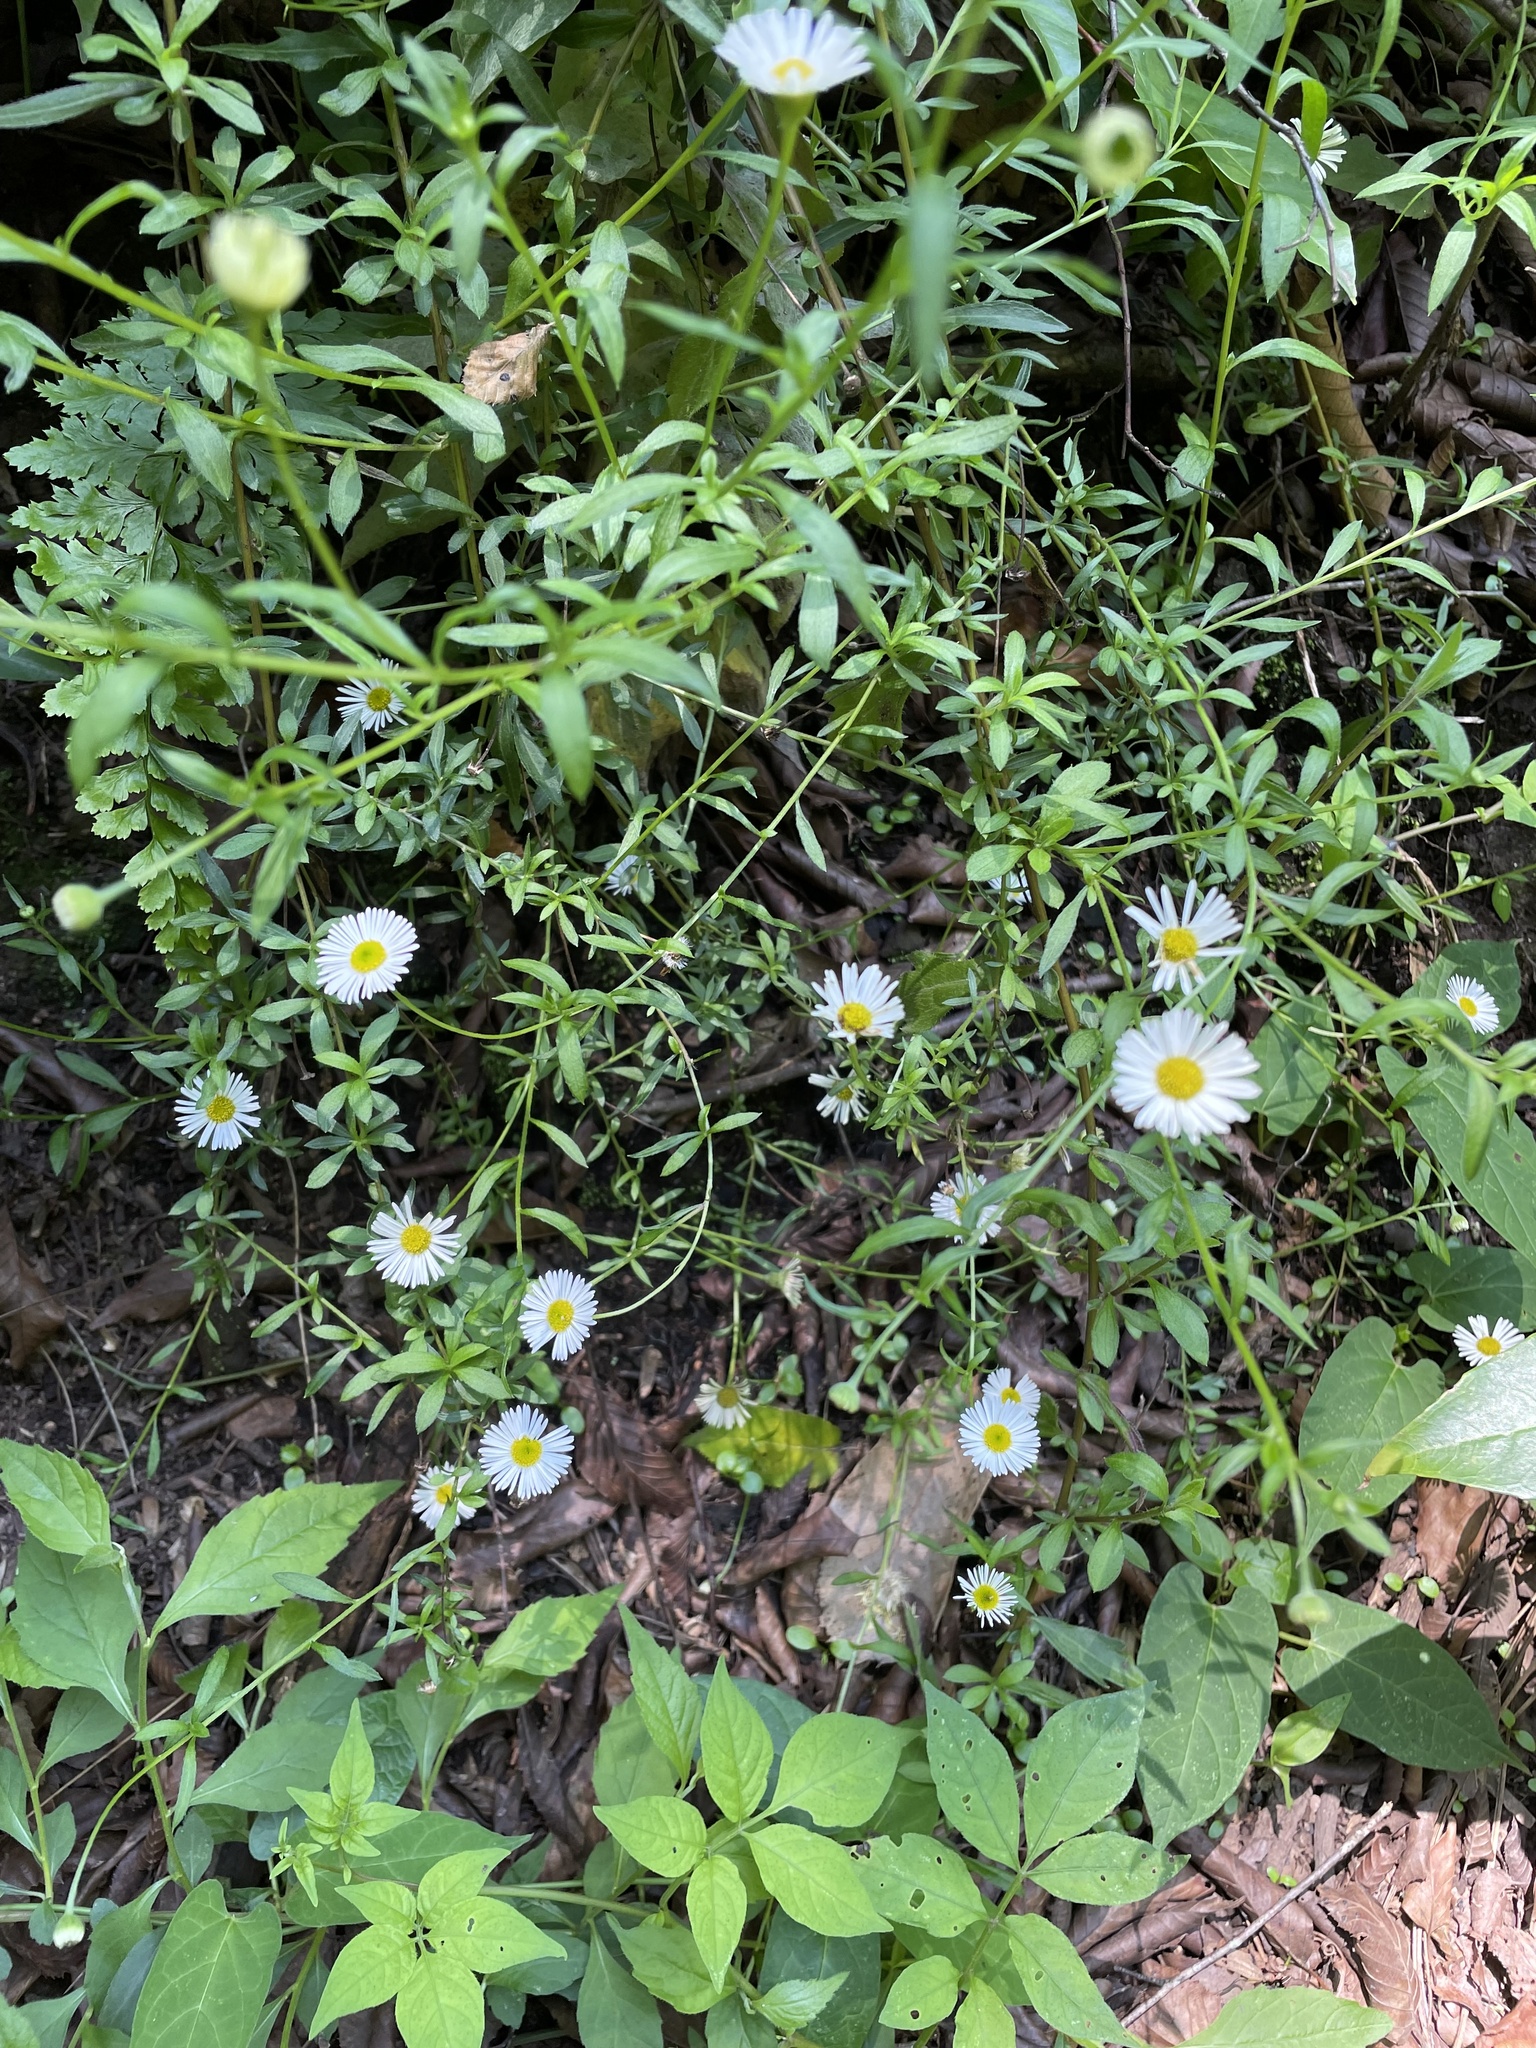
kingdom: Plantae
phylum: Tracheophyta
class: Magnoliopsida
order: Asterales
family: Asteraceae
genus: Erigeron
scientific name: Erigeron karvinskianus
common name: Mexican fleabane
